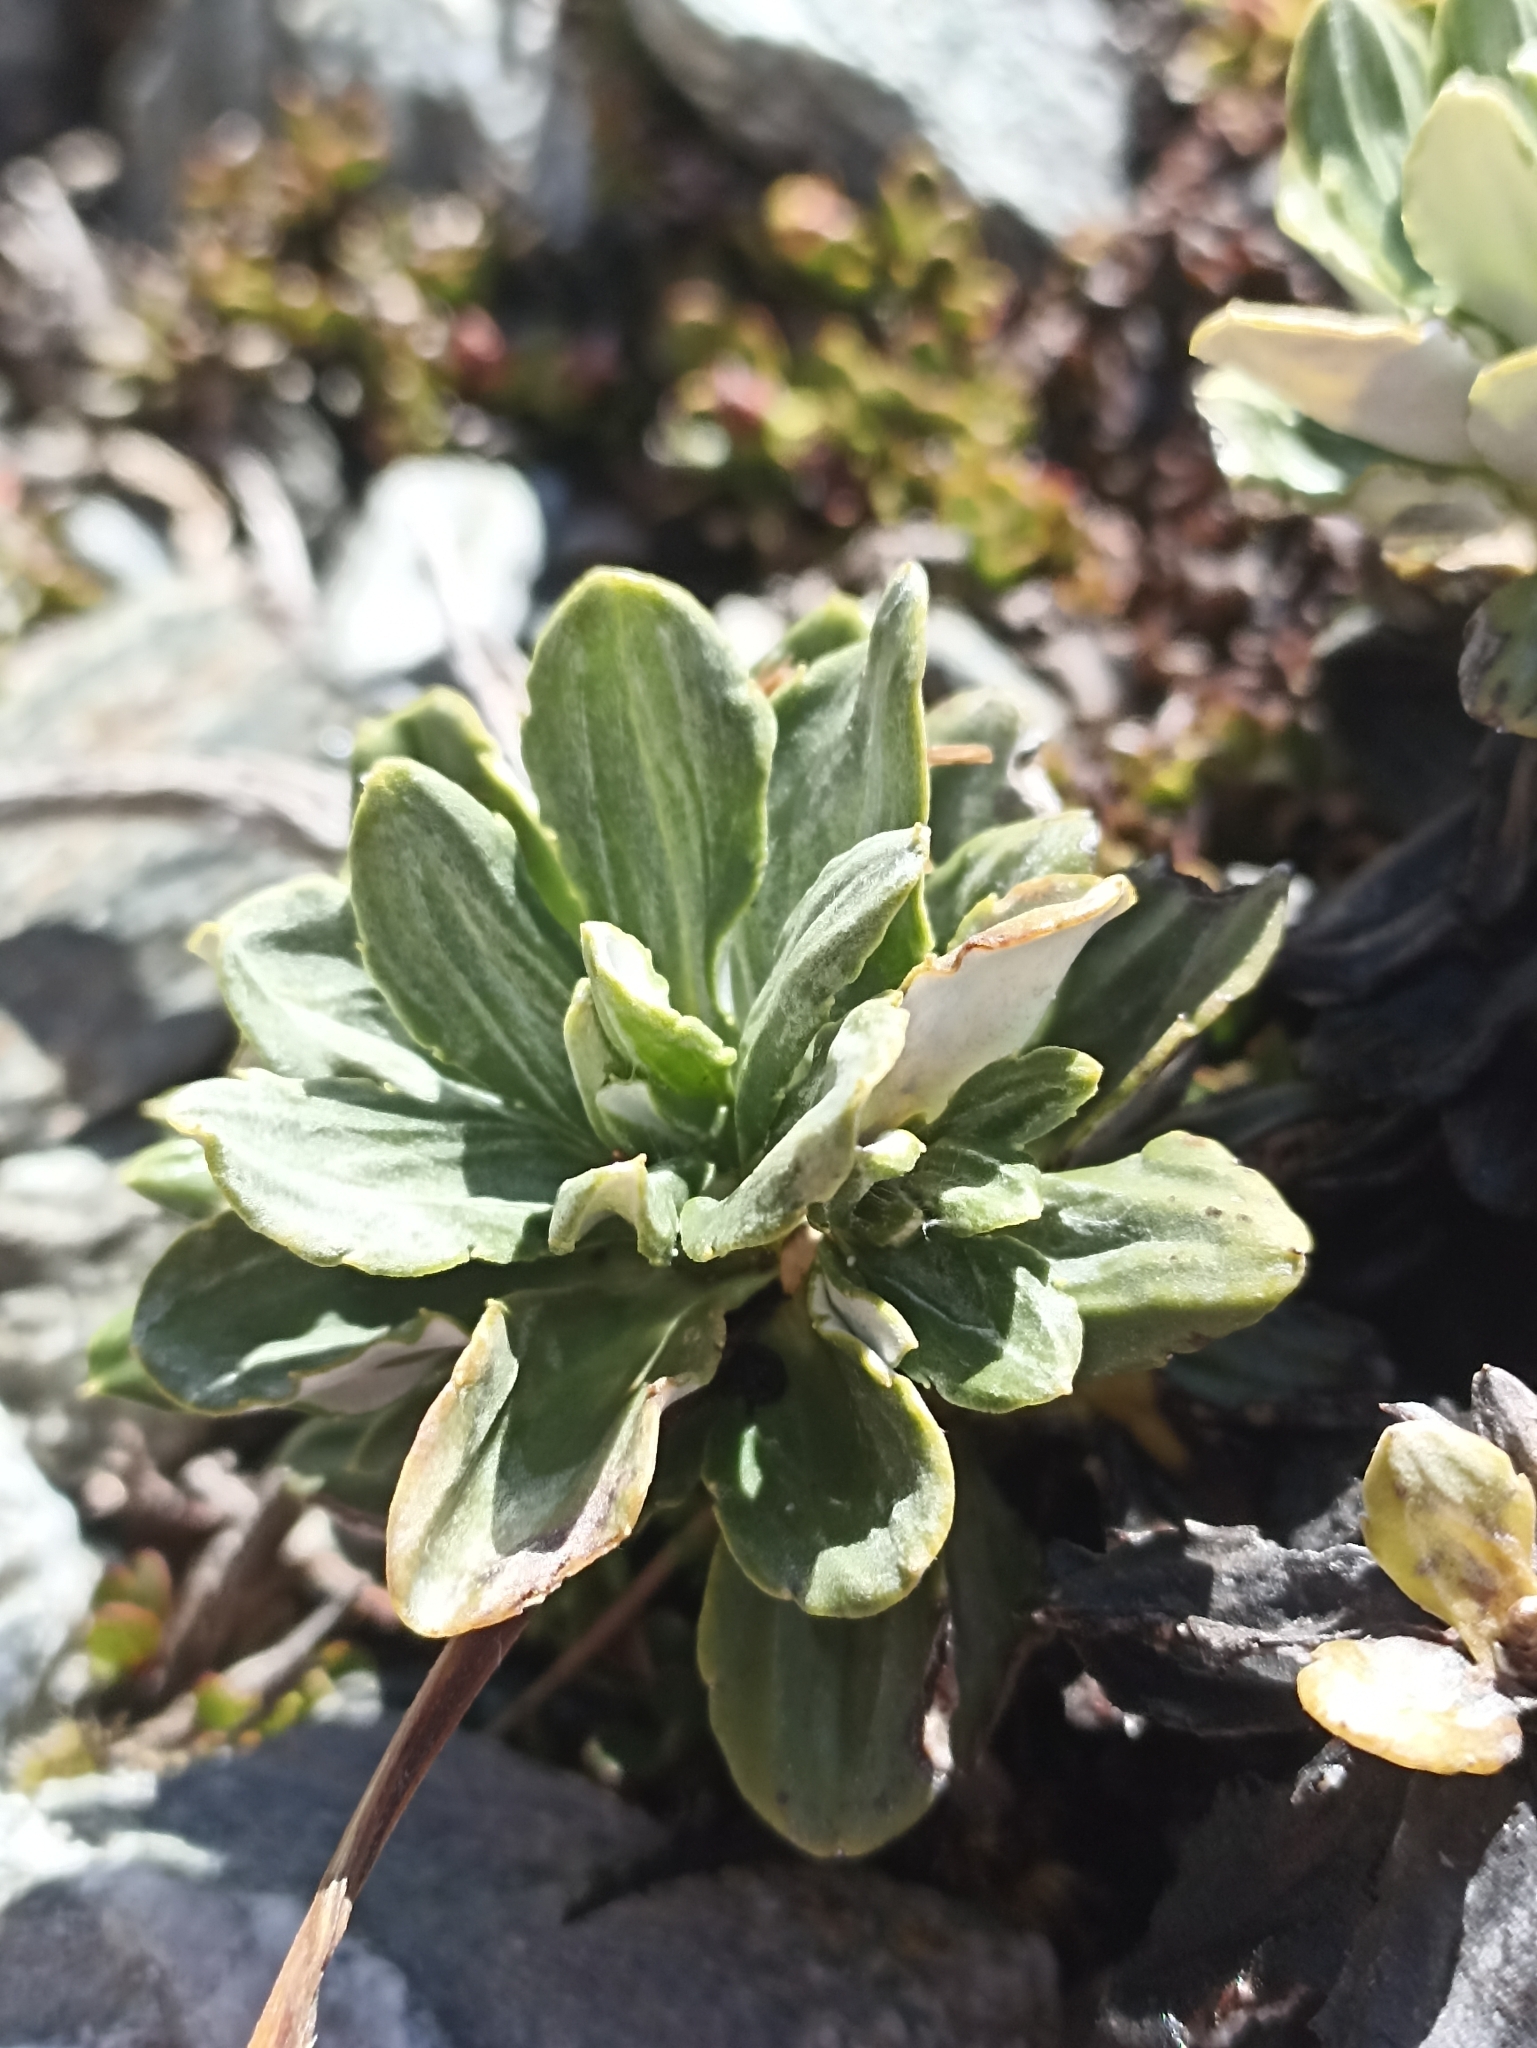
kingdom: Plantae
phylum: Tracheophyta
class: Magnoliopsida
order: Asterales
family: Asteraceae
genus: Celmisia
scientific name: Celmisia brevifolia
